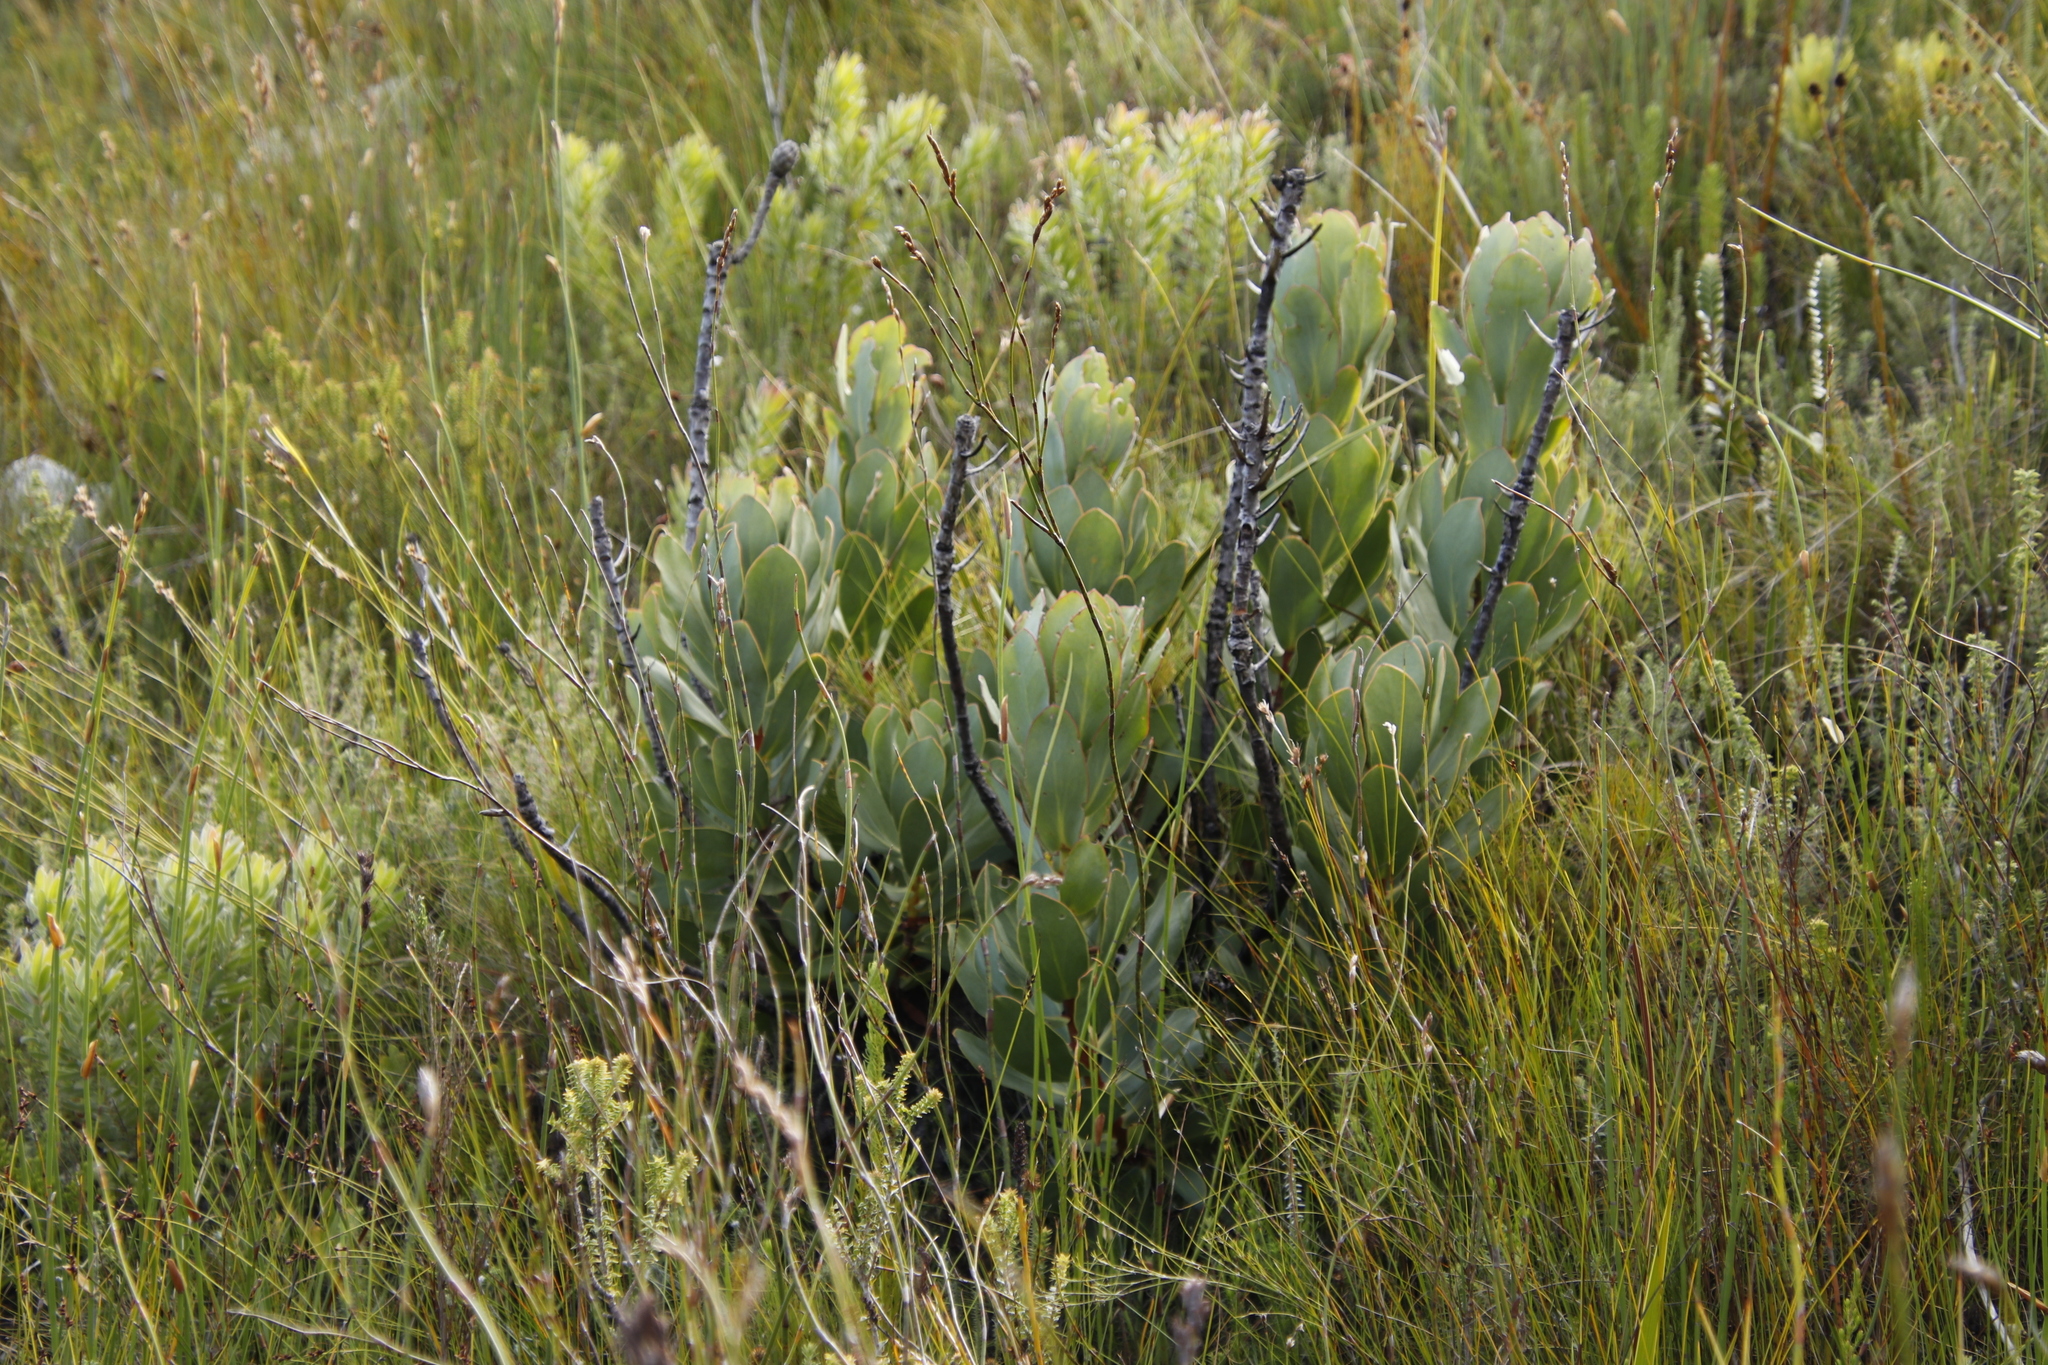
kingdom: Plantae
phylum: Tracheophyta
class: Magnoliopsida
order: Proteales
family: Proteaceae
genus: Protea
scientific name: Protea speciosa
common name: Brown-beard sugarbush
